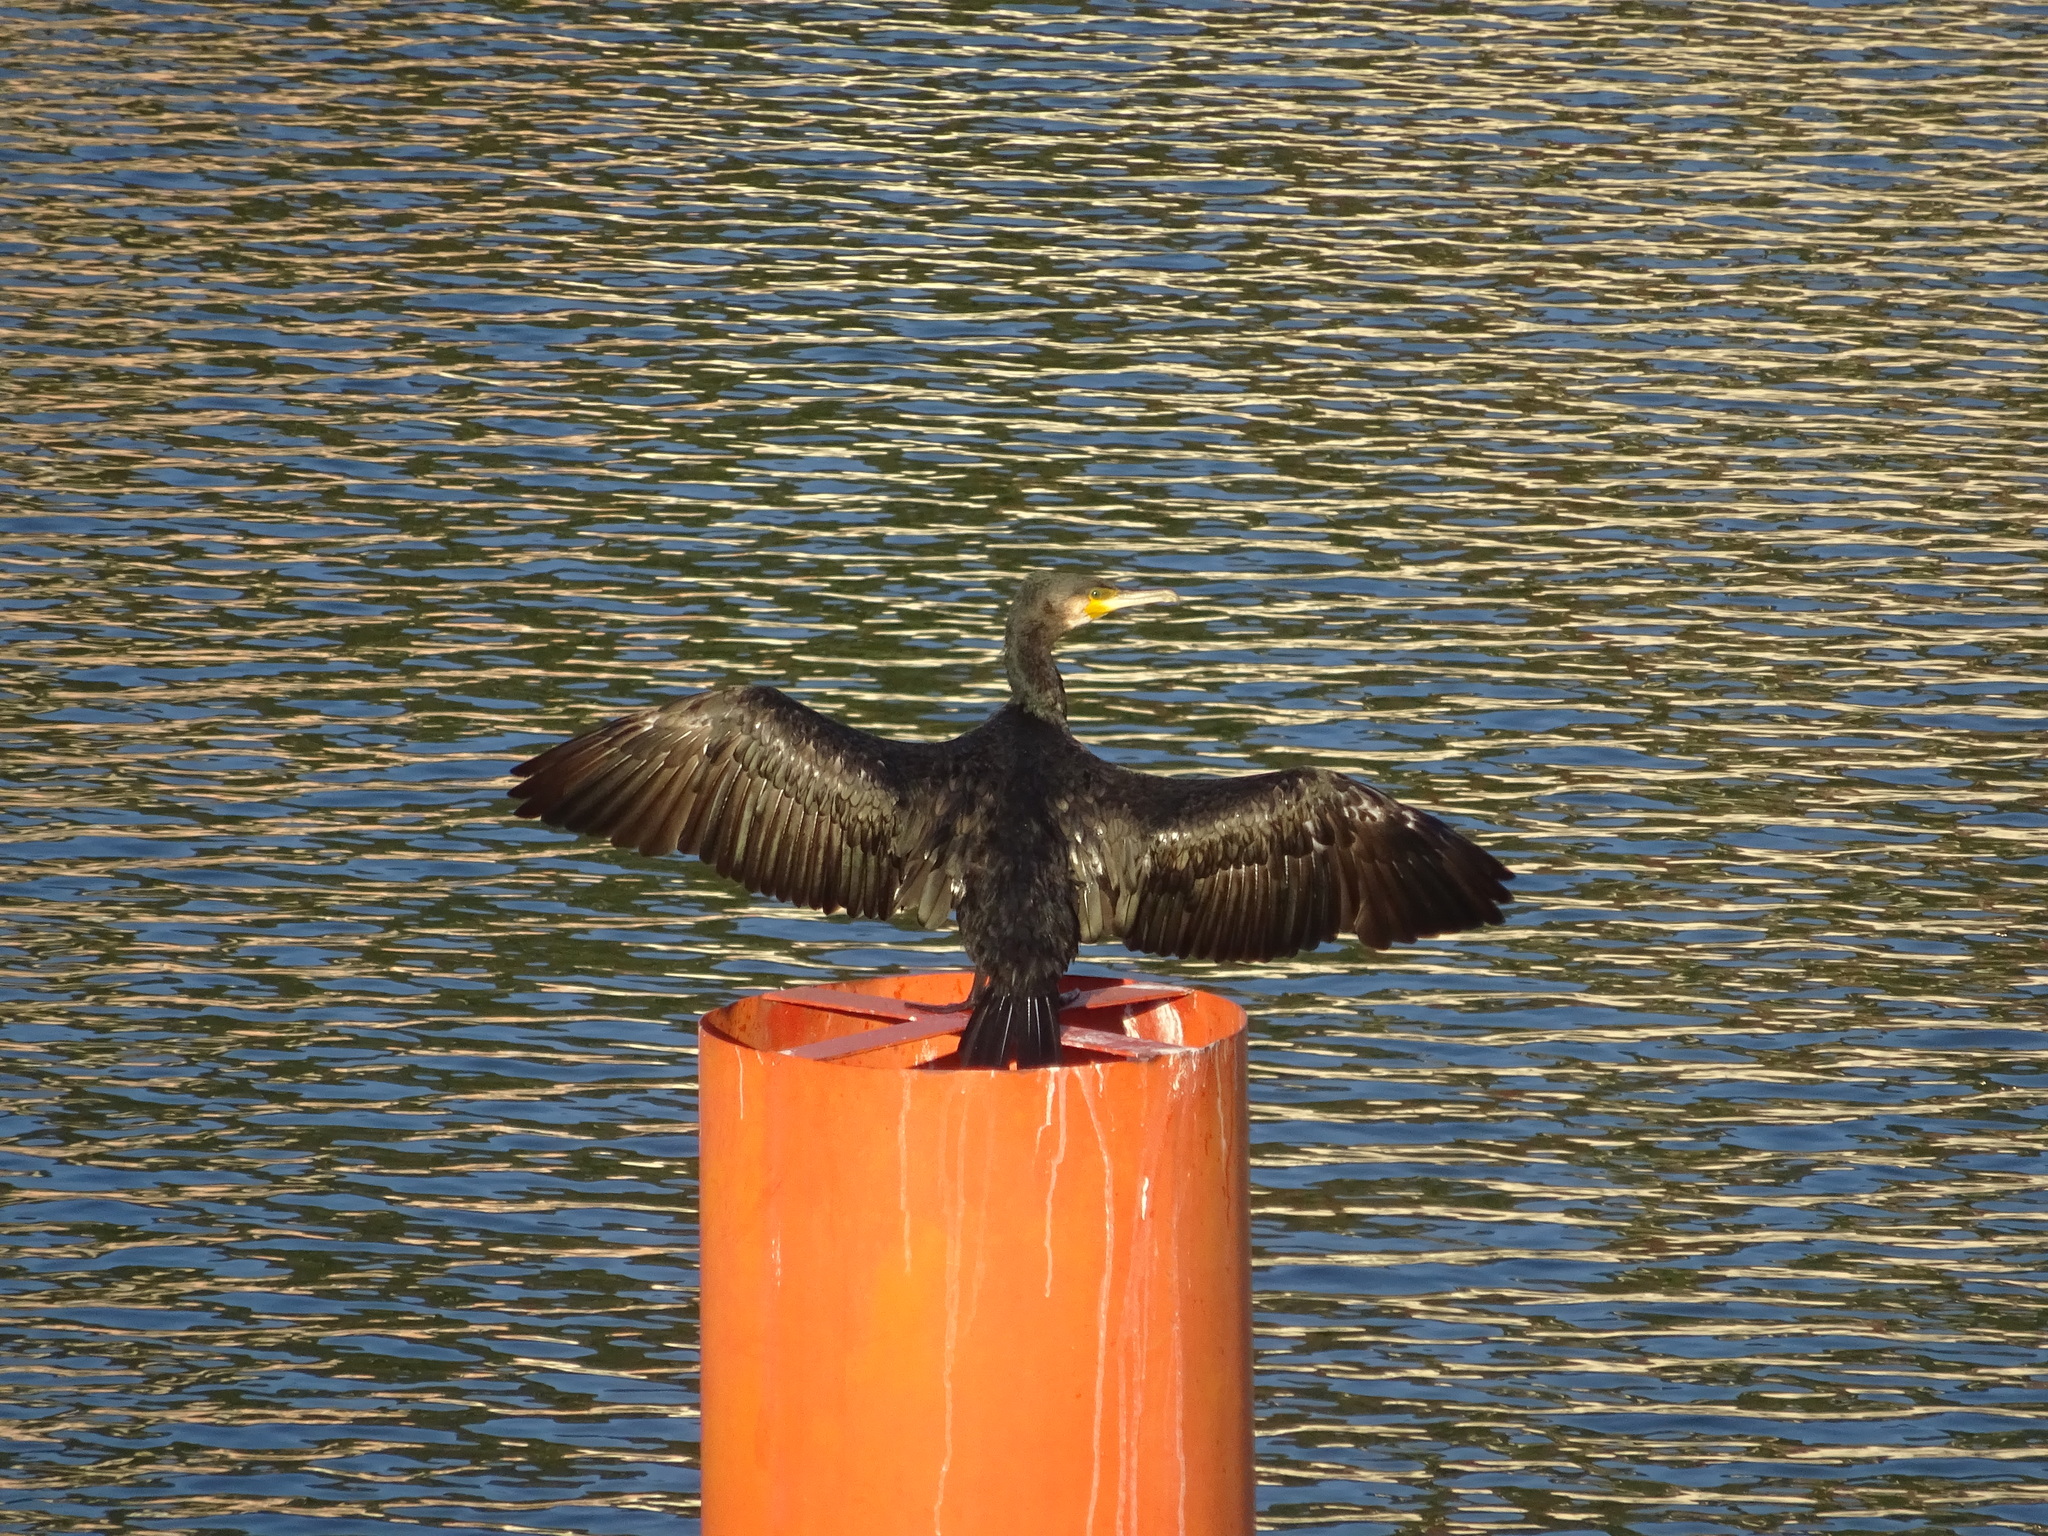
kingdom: Animalia
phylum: Chordata
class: Aves
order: Suliformes
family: Phalacrocoracidae
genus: Phalacrocorax
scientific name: Phalacrocorax carbo
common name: Great cormorant
